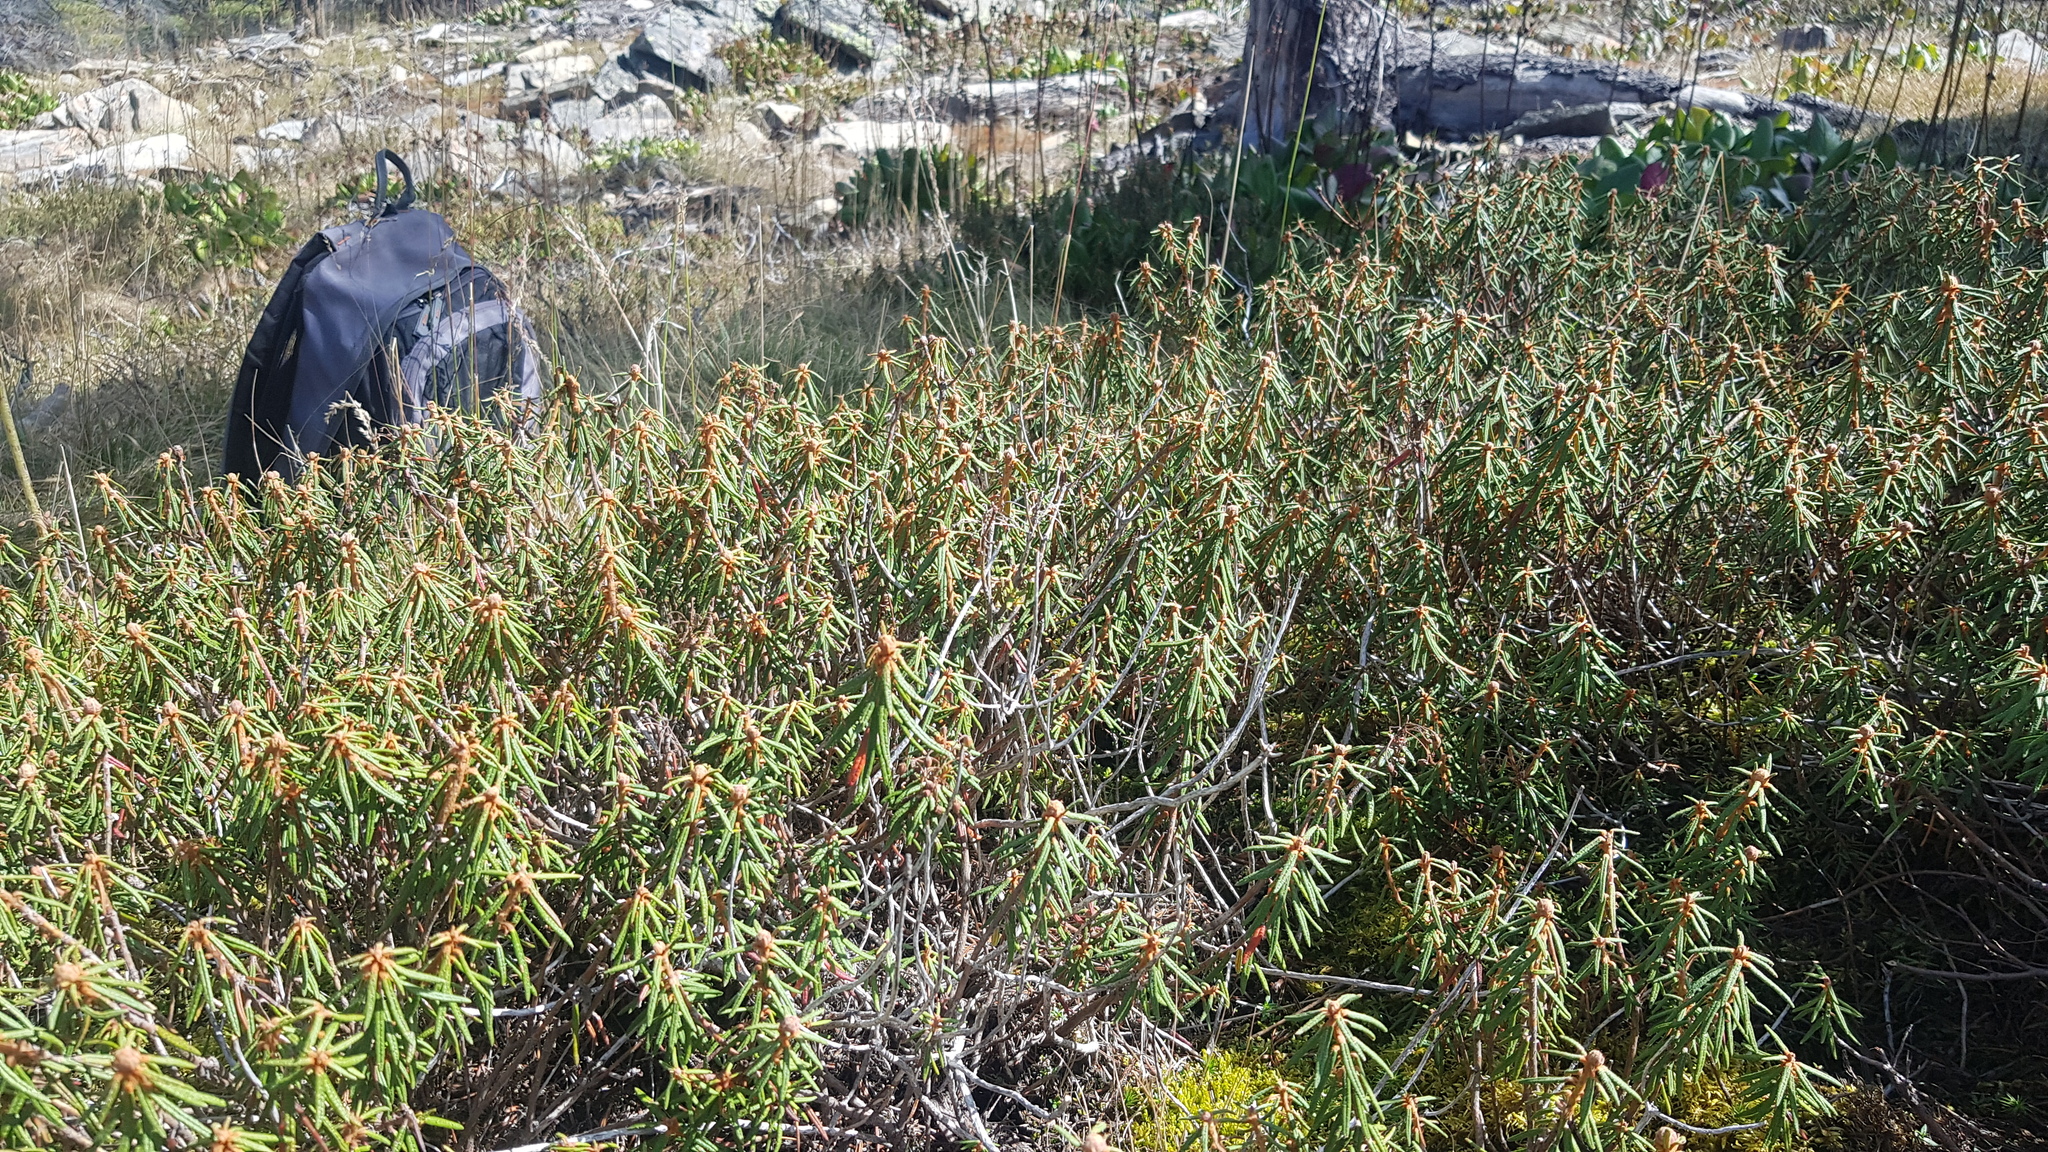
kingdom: Plantae
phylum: Tracheophyta
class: Magnoliopsida
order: Ericales
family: Ericaceae
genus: Rhododendron
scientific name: Rhododendron tomentosum
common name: Marsh labrador tea
